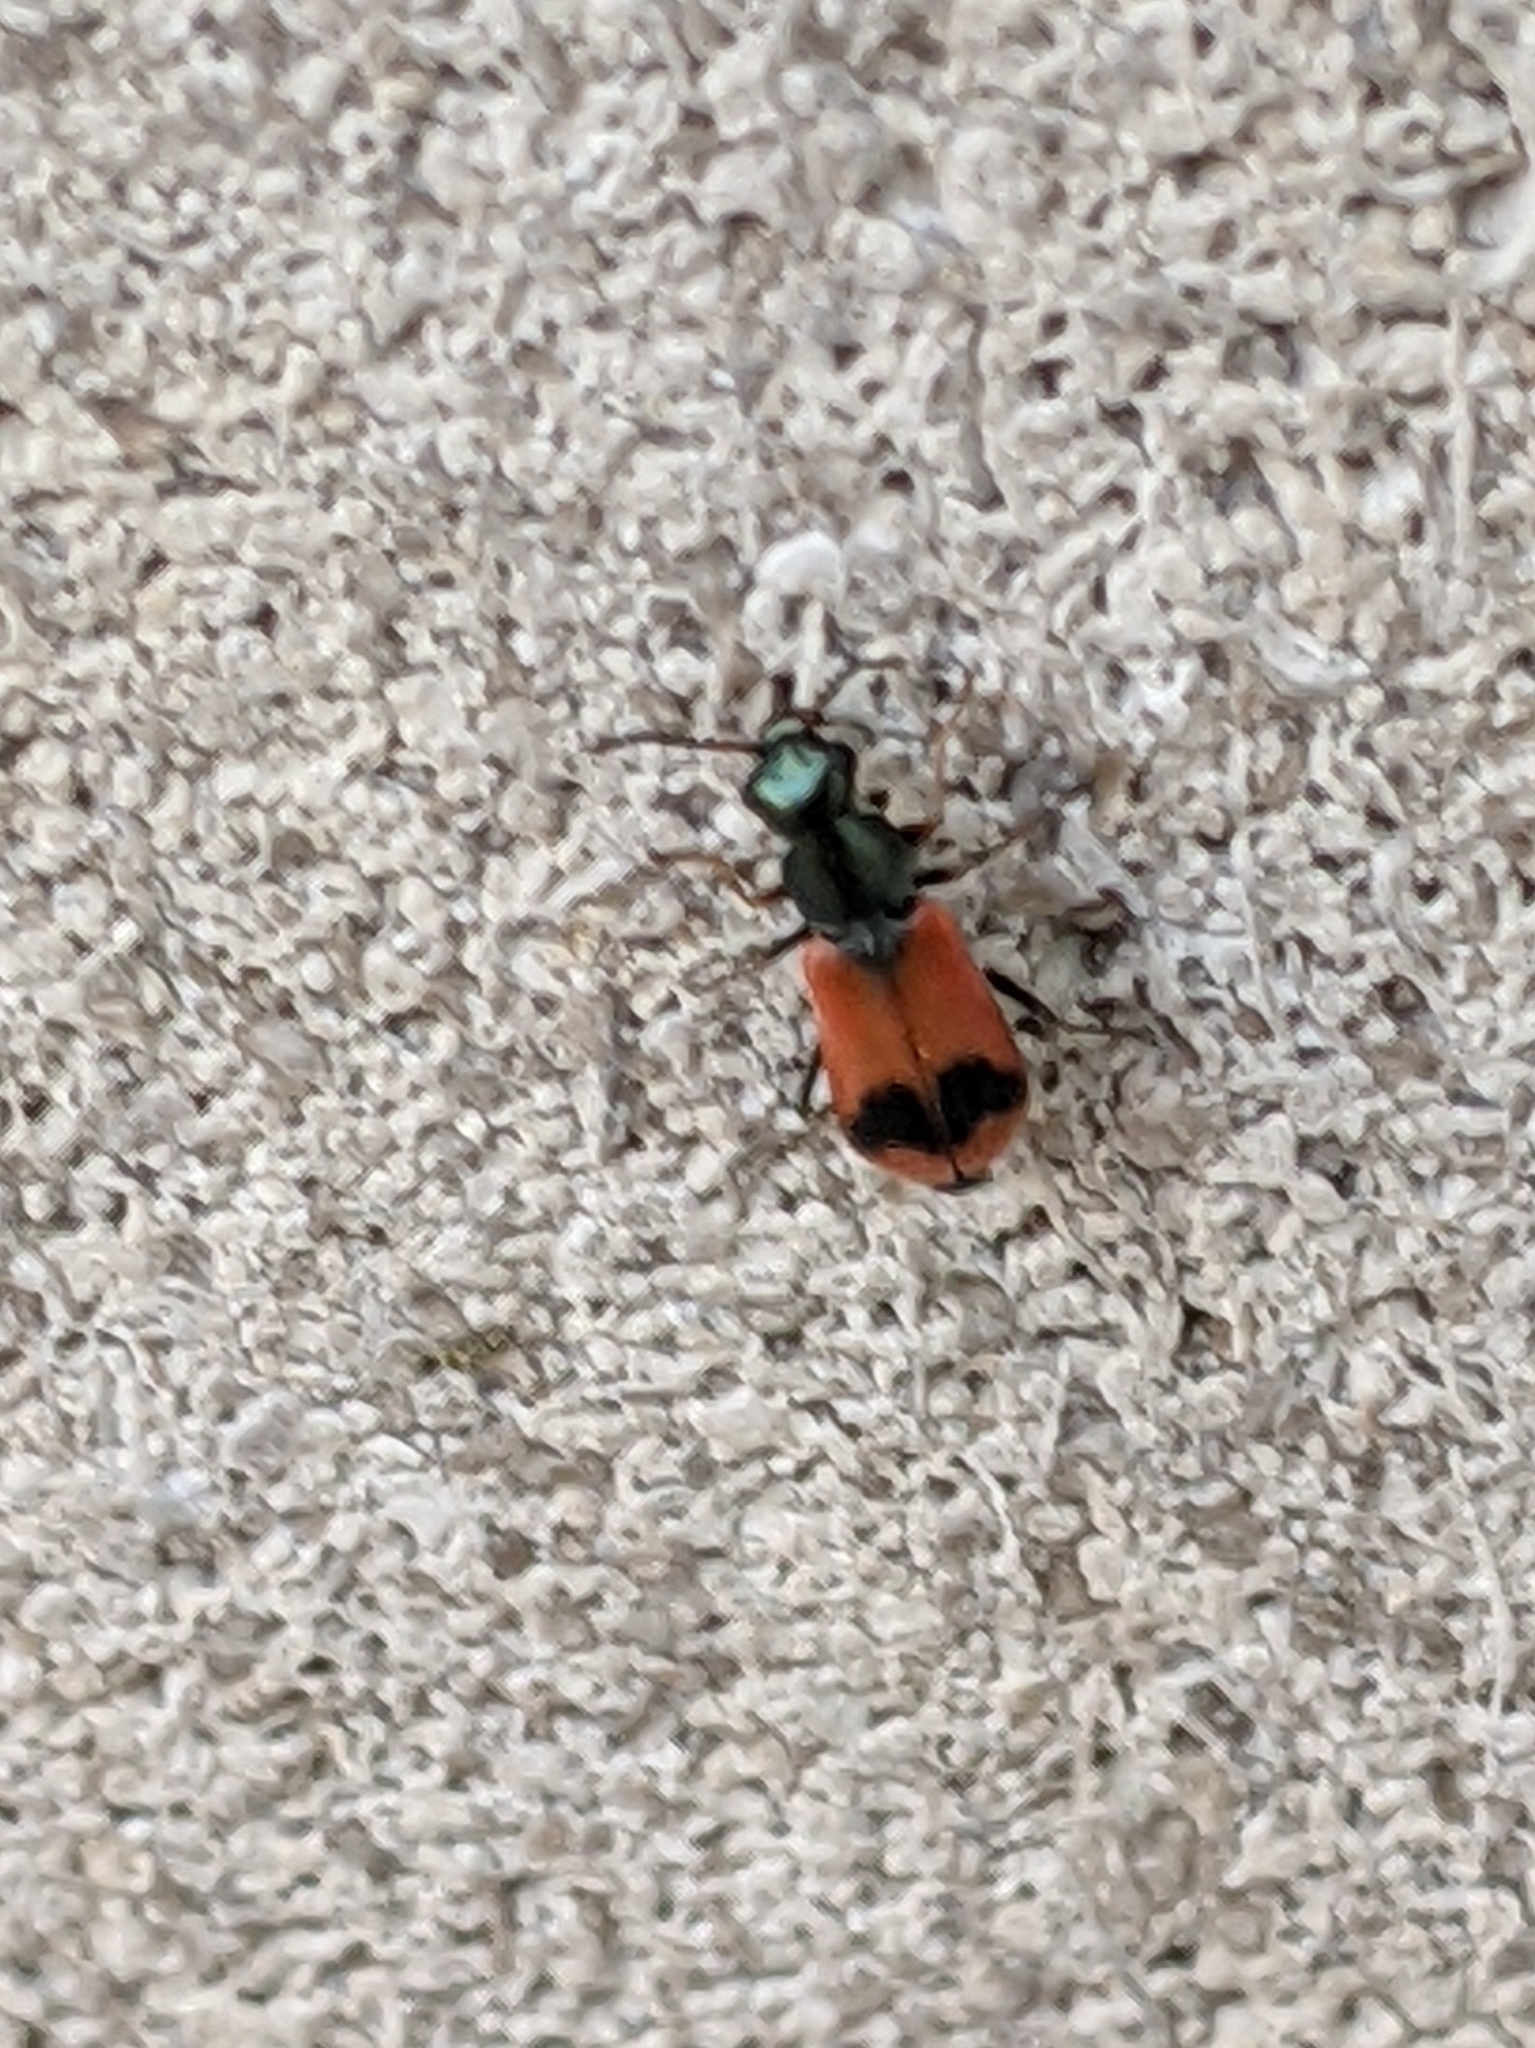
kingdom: Animalia
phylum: Arthropoda
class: Insecta
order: Coleoptera
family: Melyridae
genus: Anthocomus
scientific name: Anthocomus equestris
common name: Black-banded soft-winged flower beetle
